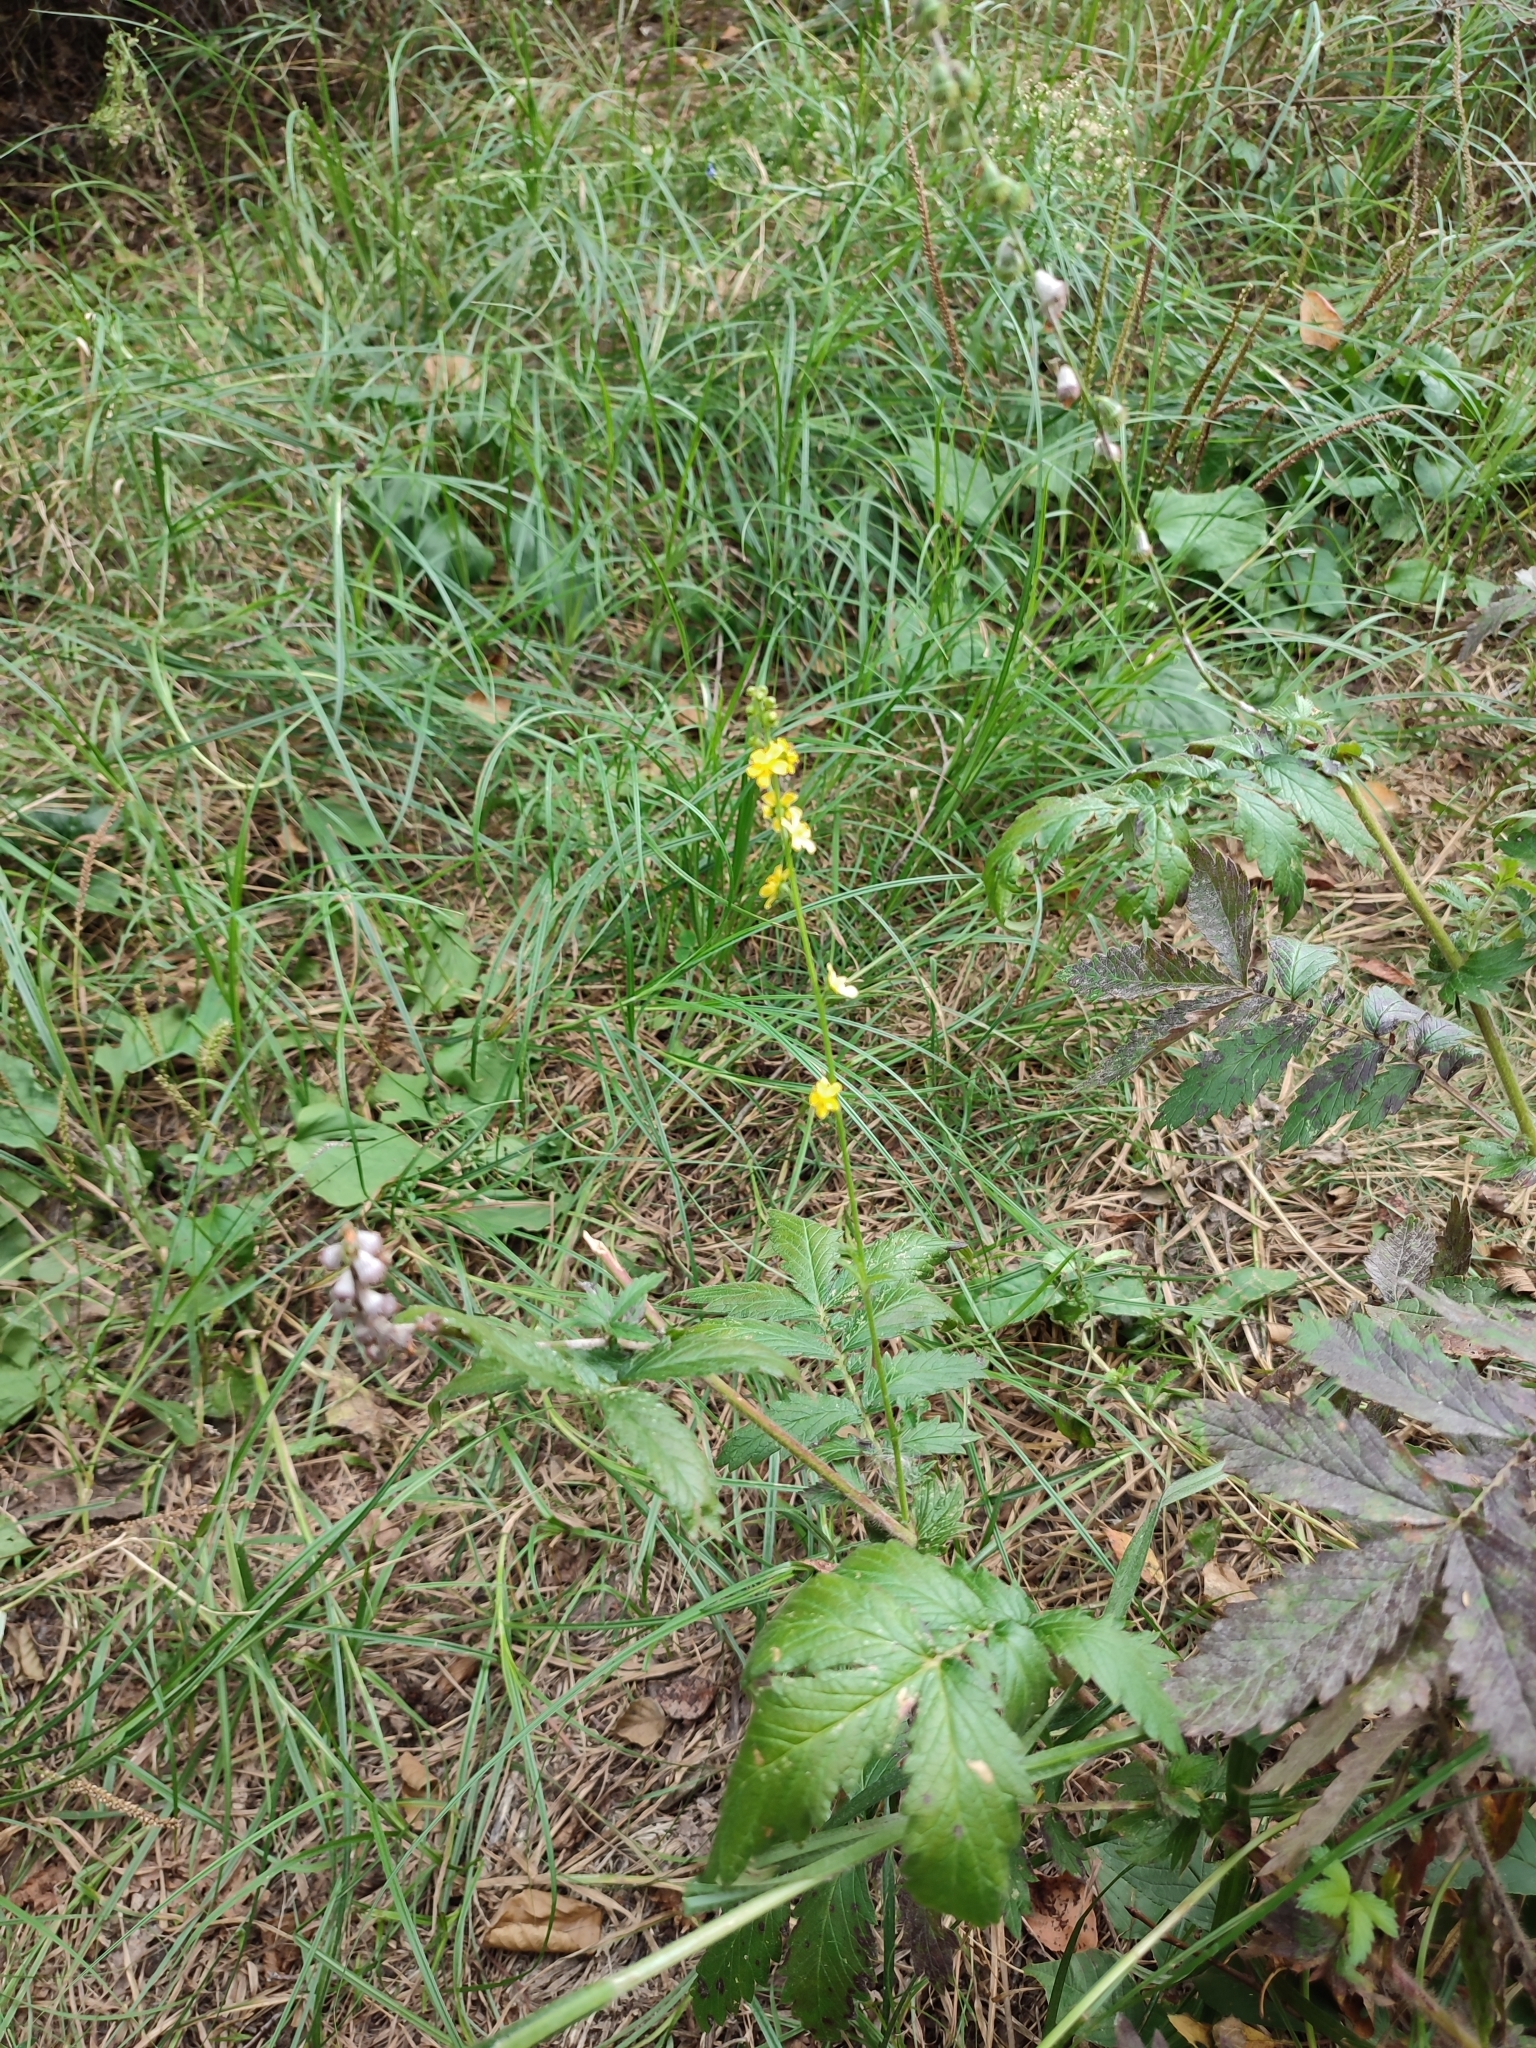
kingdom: Plantae
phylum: Tracheophyta
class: Magnoliopsida
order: Rosales
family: Rosaceae
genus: Agrimonia
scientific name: Agrimonia procera
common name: Fragrant agrimony
